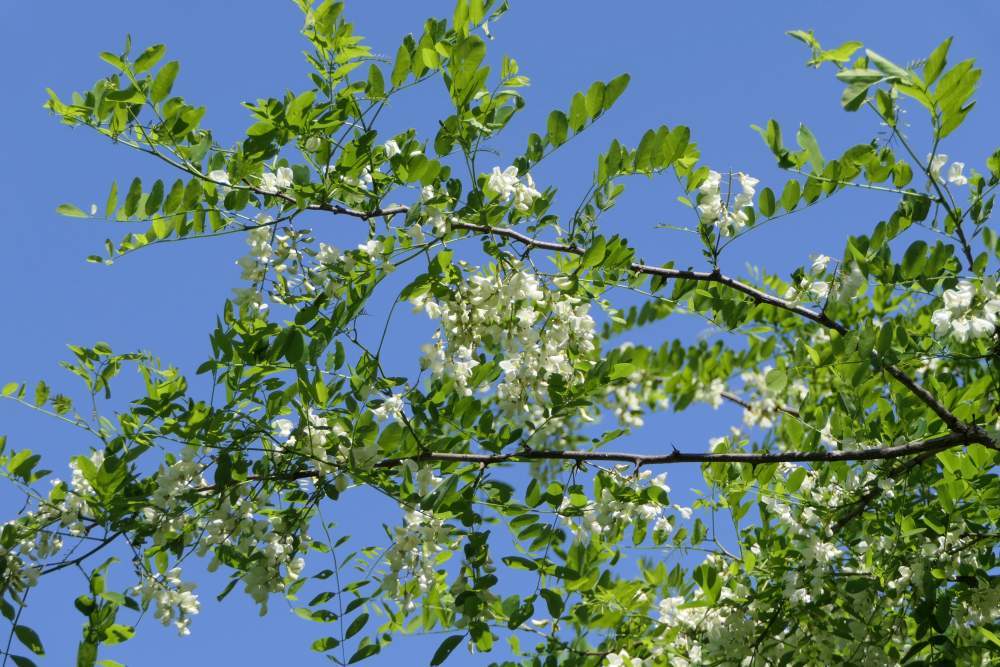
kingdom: Plantae
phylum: Tracheophyta
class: Magnoliopsida
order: Fabales
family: Fabaceae
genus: Robinia
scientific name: Robinia pseudoacacia
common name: Black locust
